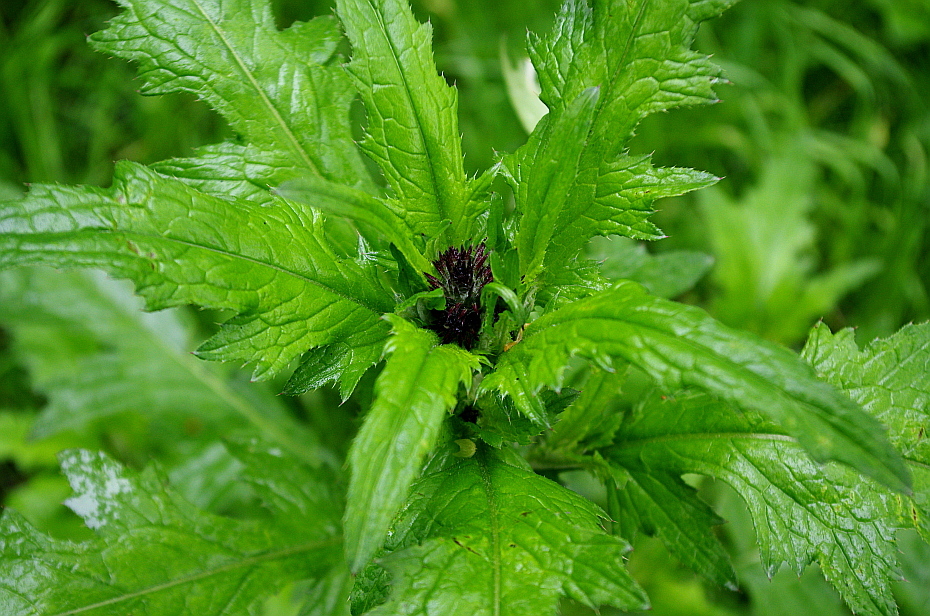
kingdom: Plantae
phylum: Tracheophyta
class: Magnoliopsida
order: Asterales
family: Asteraceae
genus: Carduus
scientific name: Carduus crispus
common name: Welted thistle
